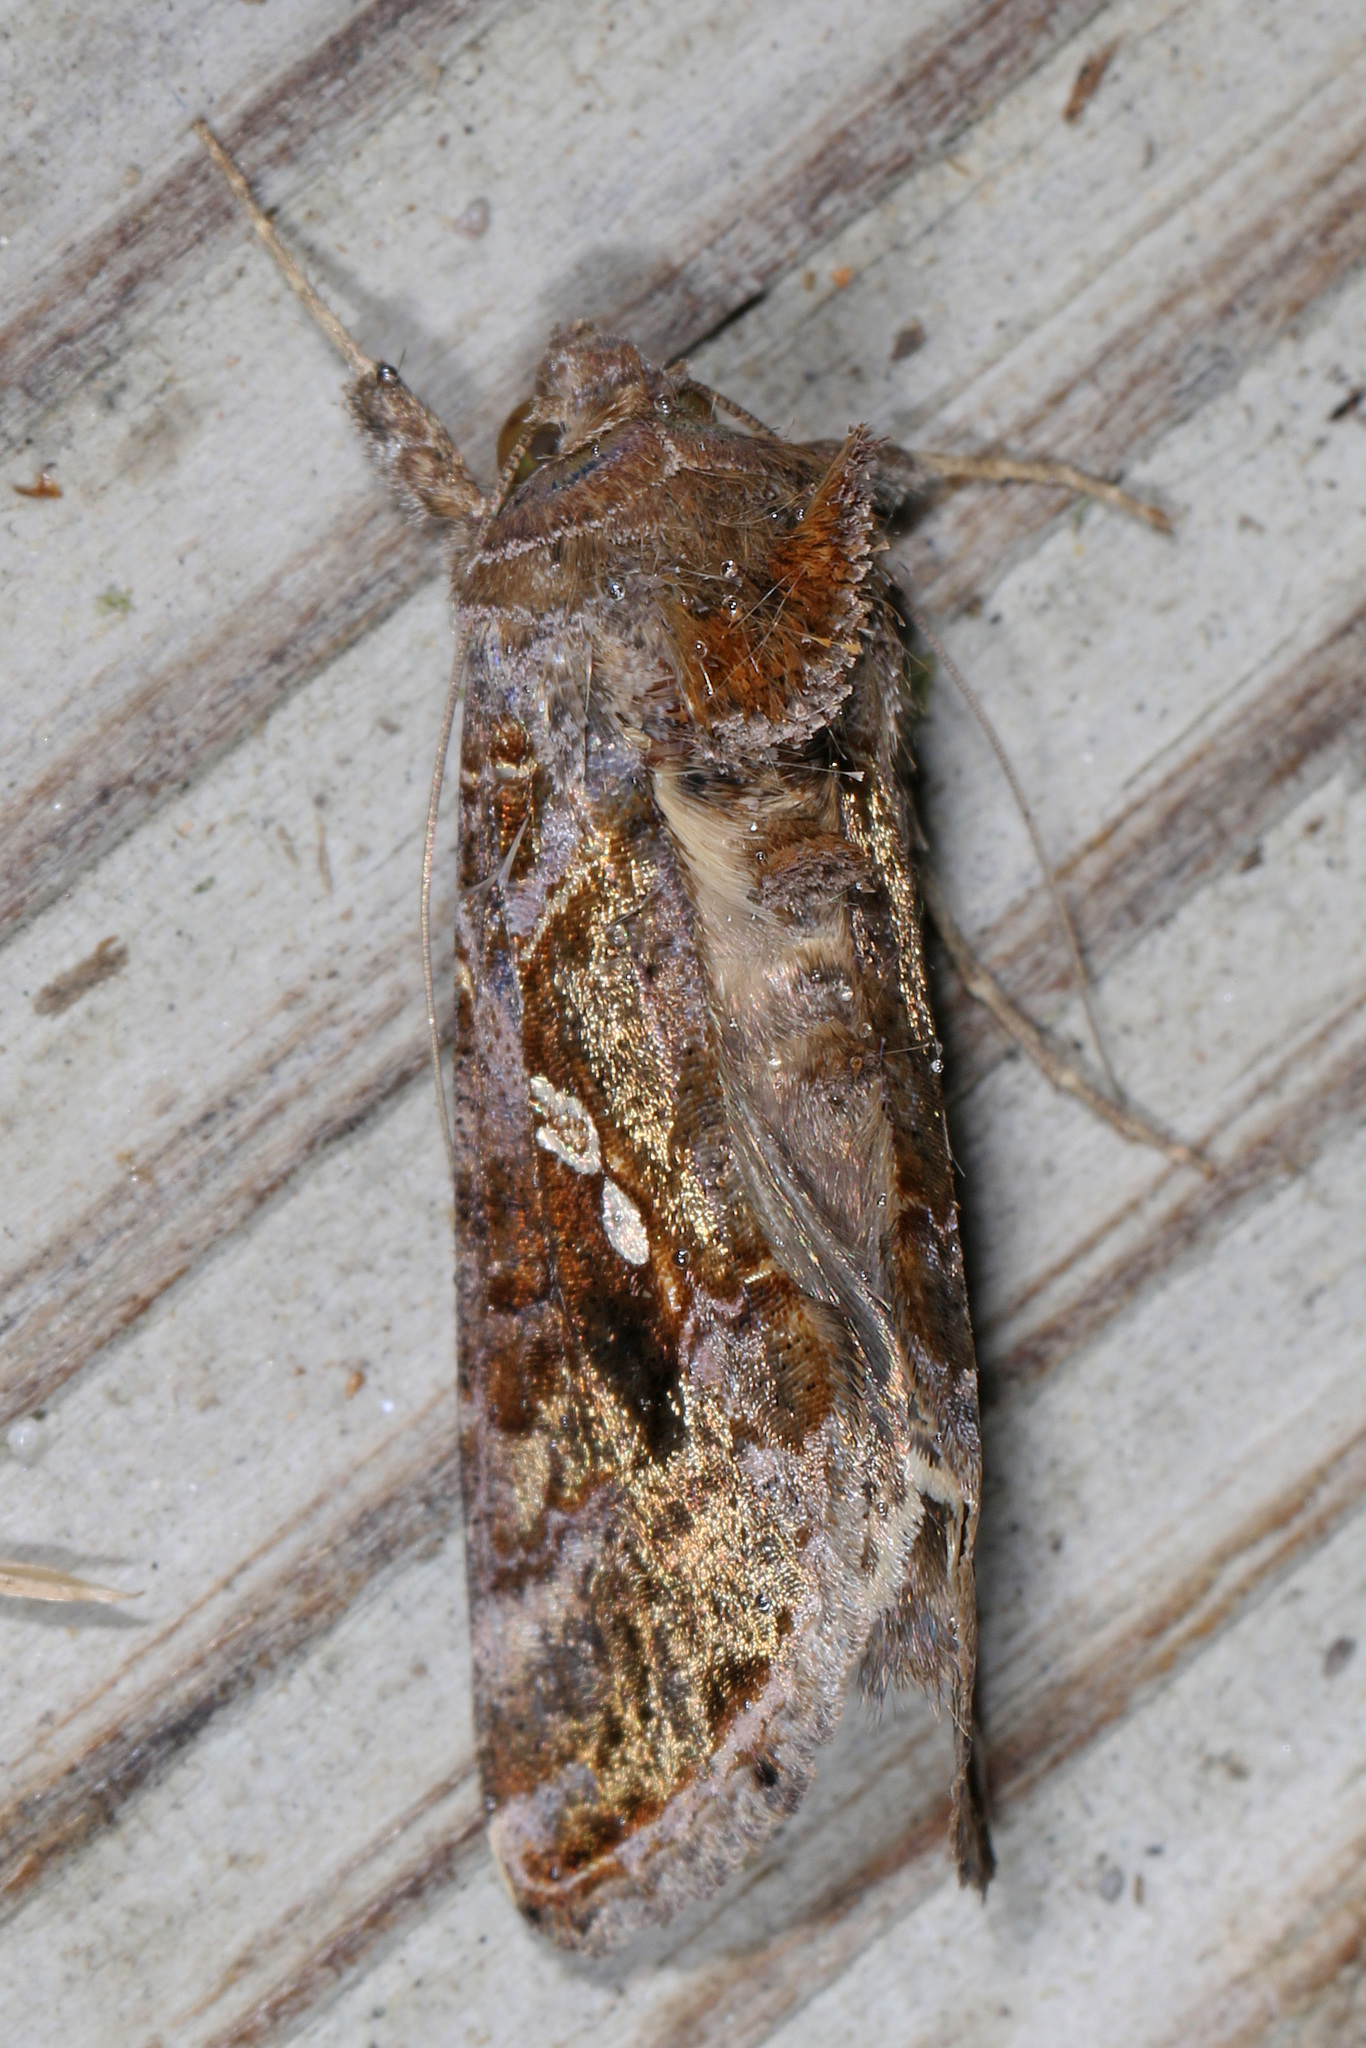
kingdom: Animalia
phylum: Arthropoda
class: Insecta
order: Lepidoptera
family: Noctuidae
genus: Chrysodeixis
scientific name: Chrysodeixis includens
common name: Cutworm moth
